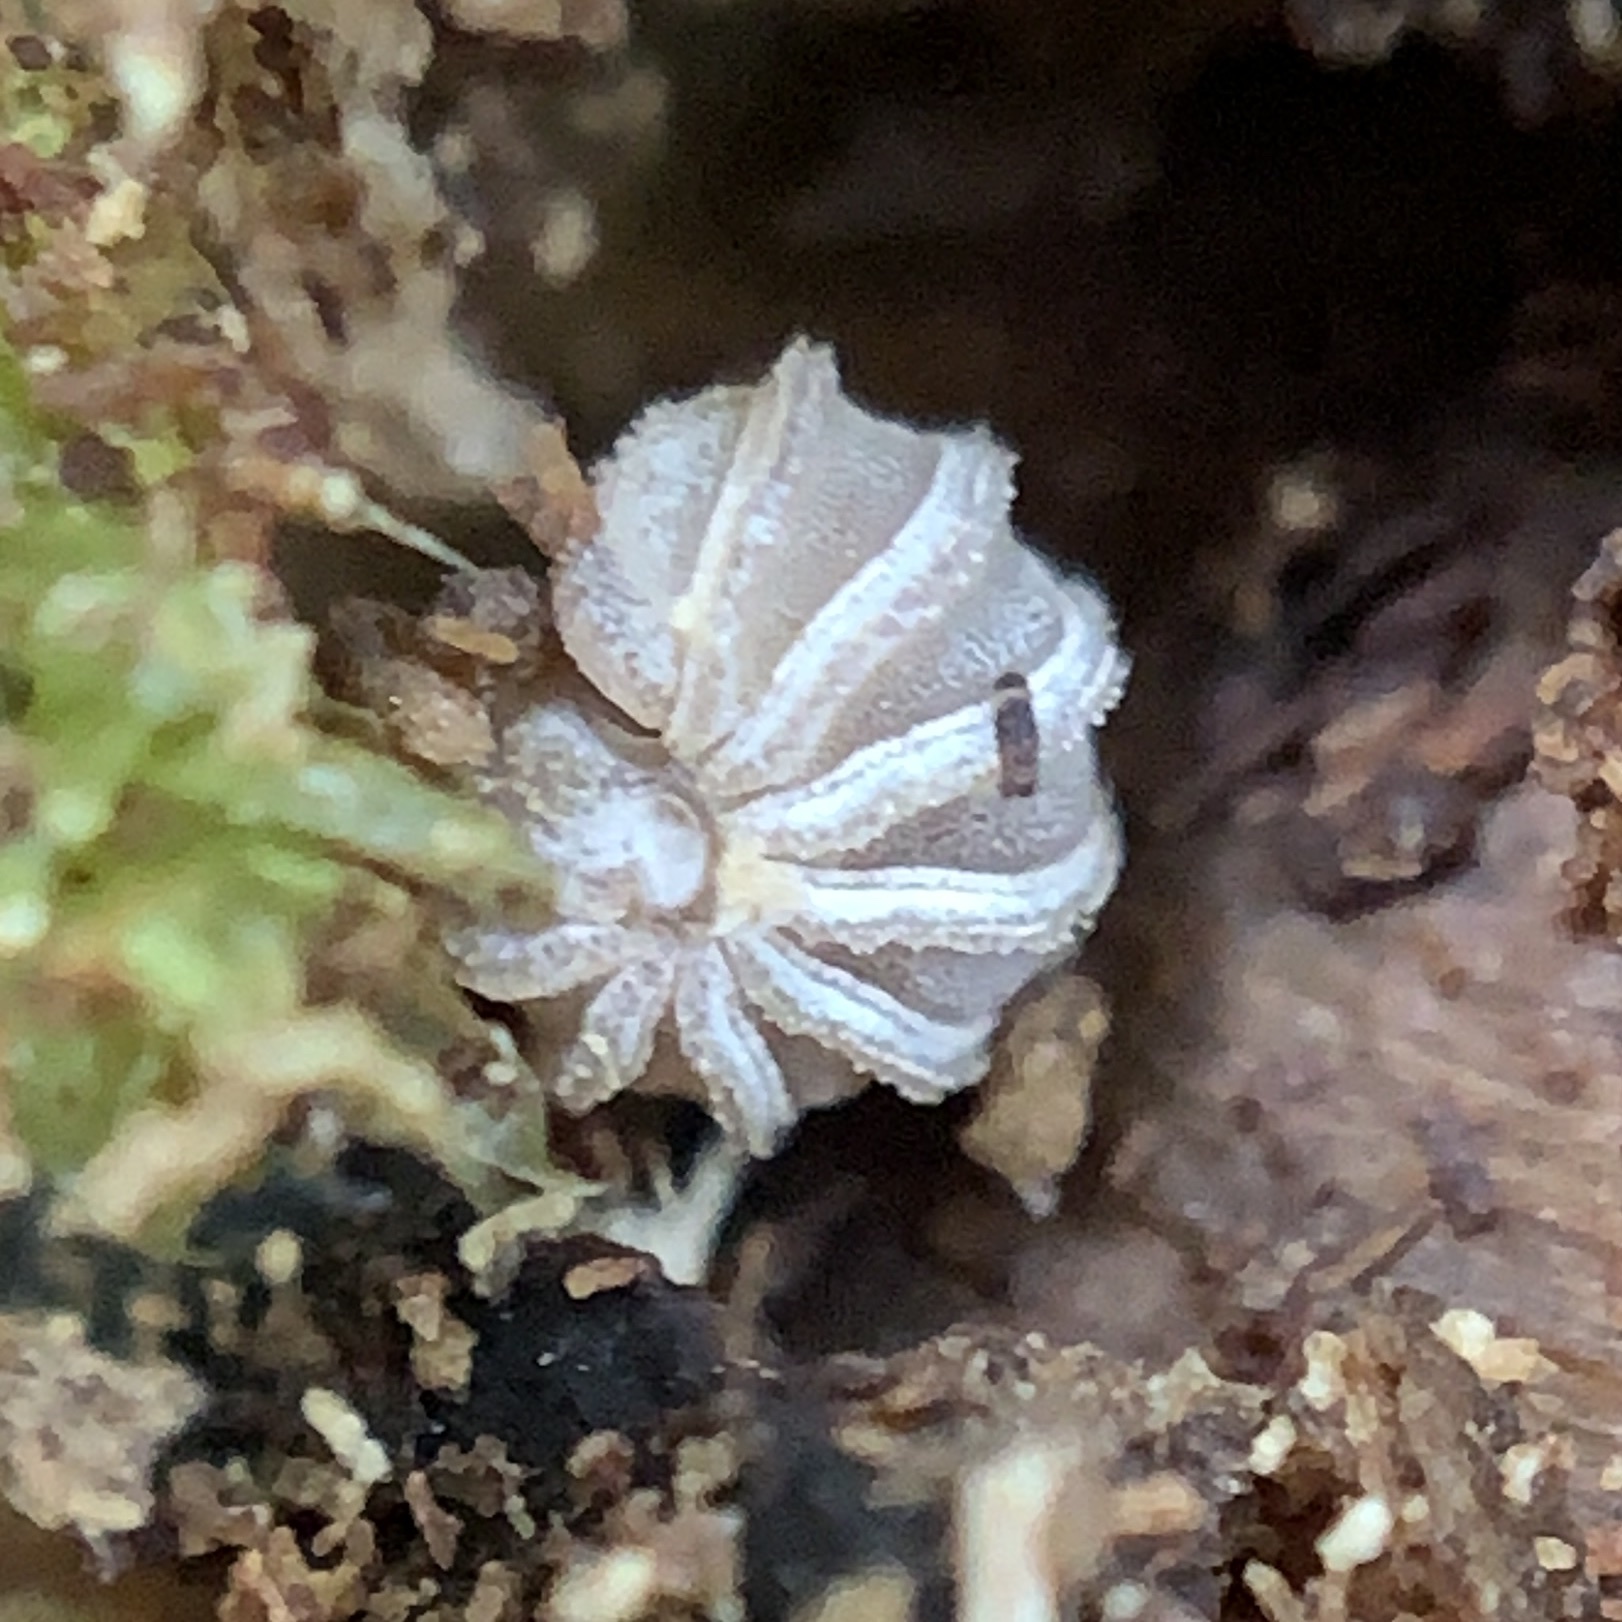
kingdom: Animalia
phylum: Arthropoda
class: Diplopoda
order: Glomerida
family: Glomeridae
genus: Trachysphaera
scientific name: Trachysphaera lobata
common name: Sand pill-millipede
